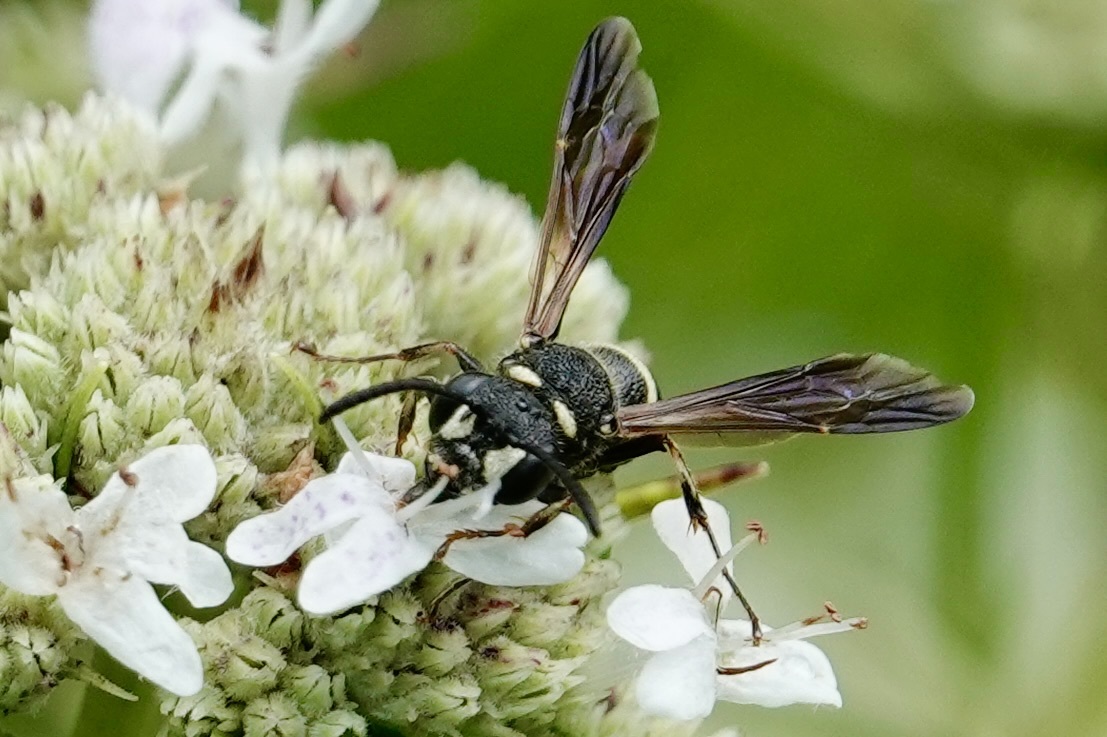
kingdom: Animalia
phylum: Arthropoda
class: Insecta
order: Hymenoptera
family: Crabronidae
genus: Cerceris
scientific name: Cerceris fumipennis
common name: Smokey-winged beetle bandit wasp
